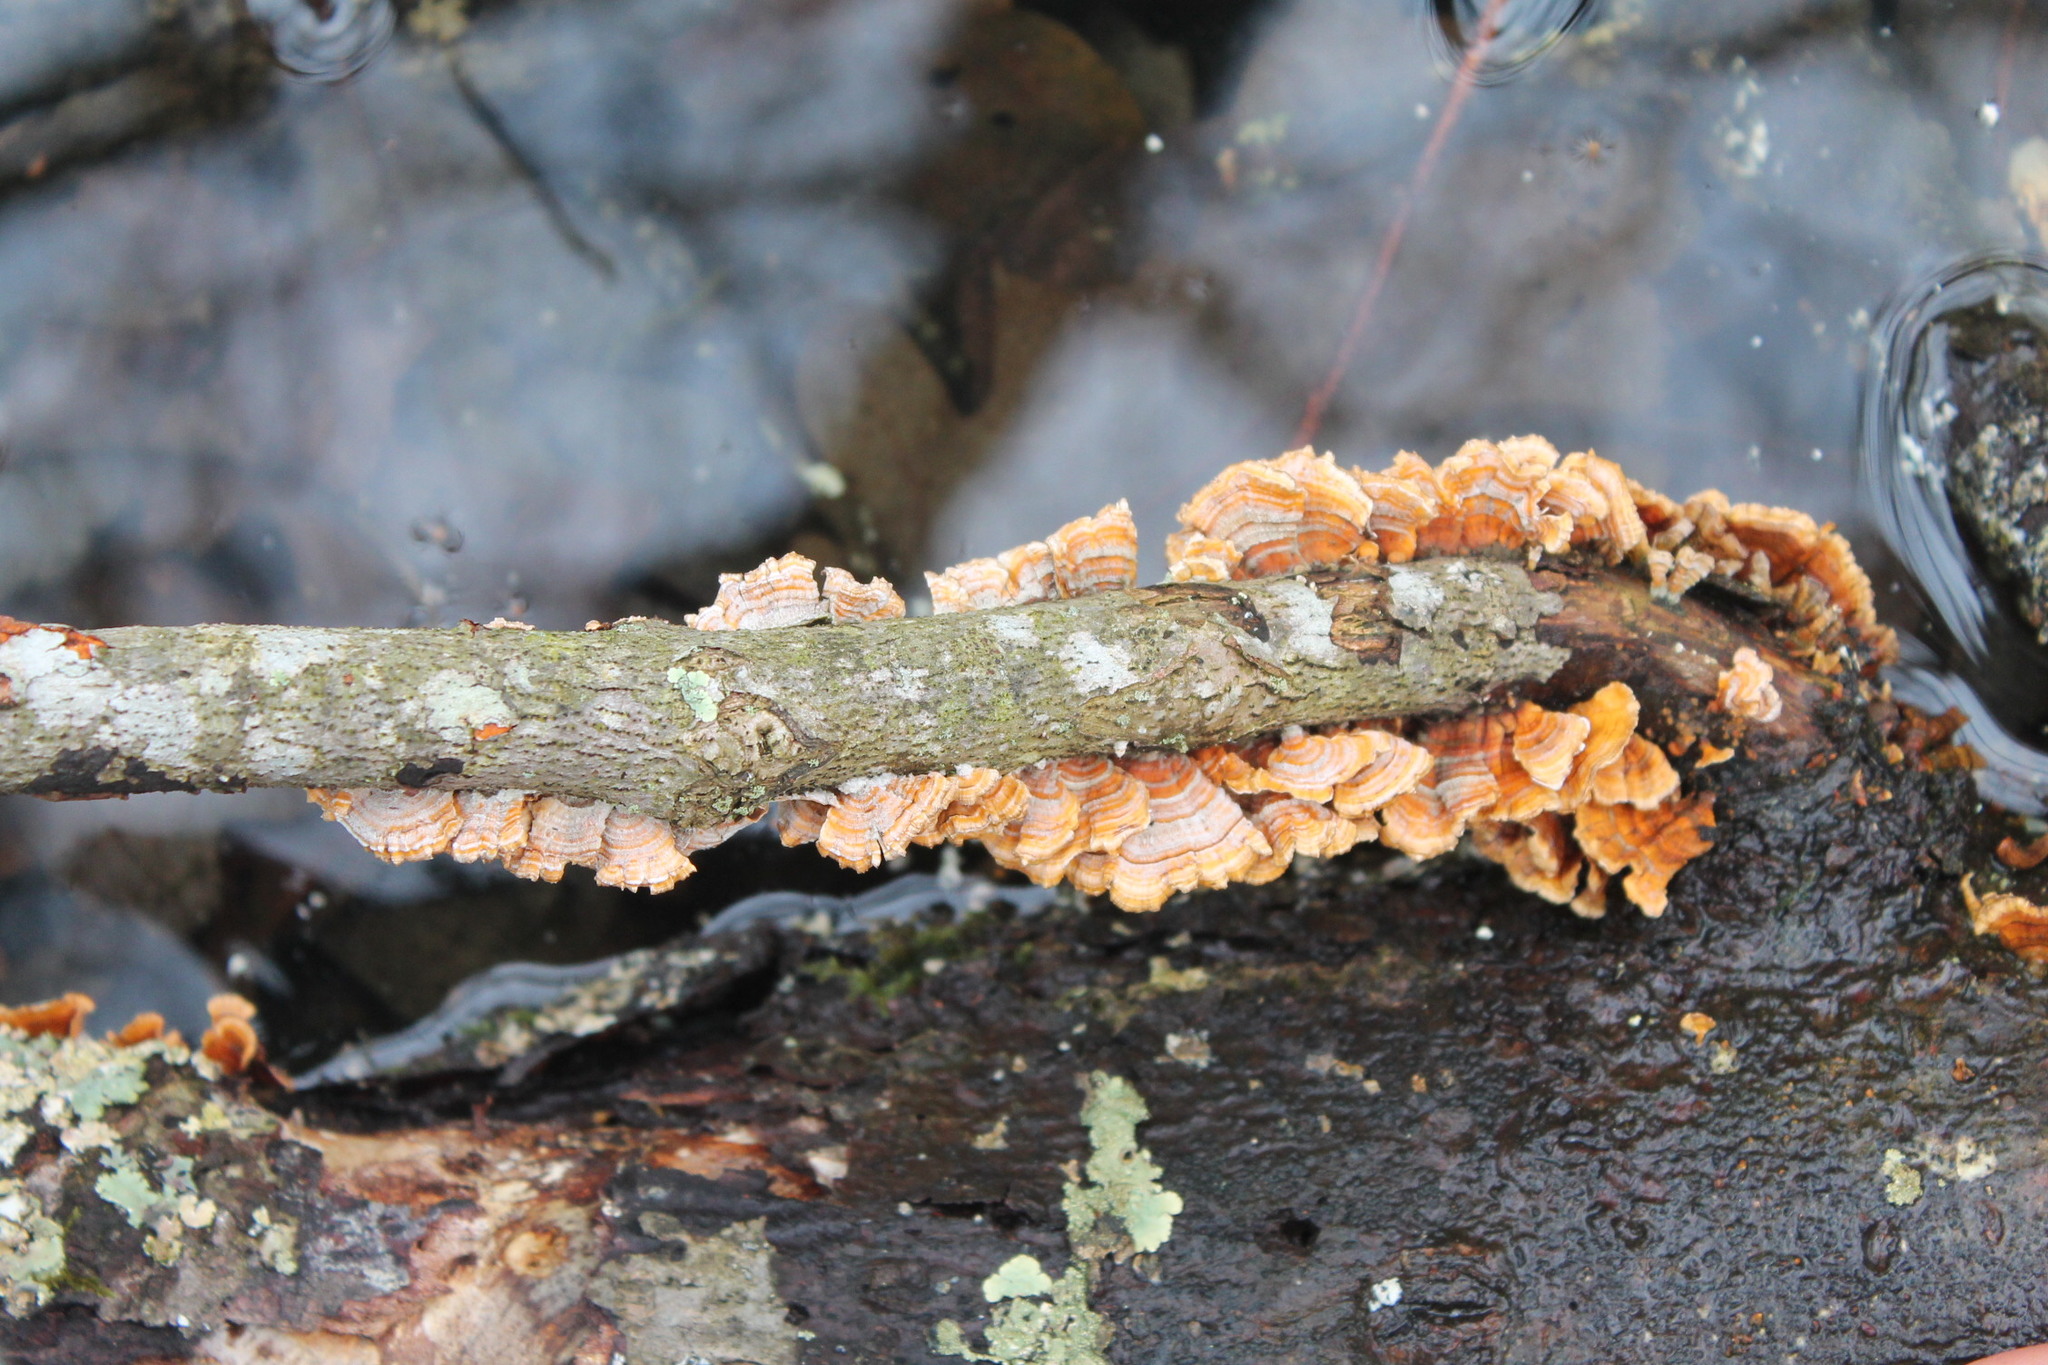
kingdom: Fungi
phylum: Basidiomycota
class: Agaricomycetes
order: Russulales
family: Stereaceae
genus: Stereum
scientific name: Stereum complicatum
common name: Crowded parchment
